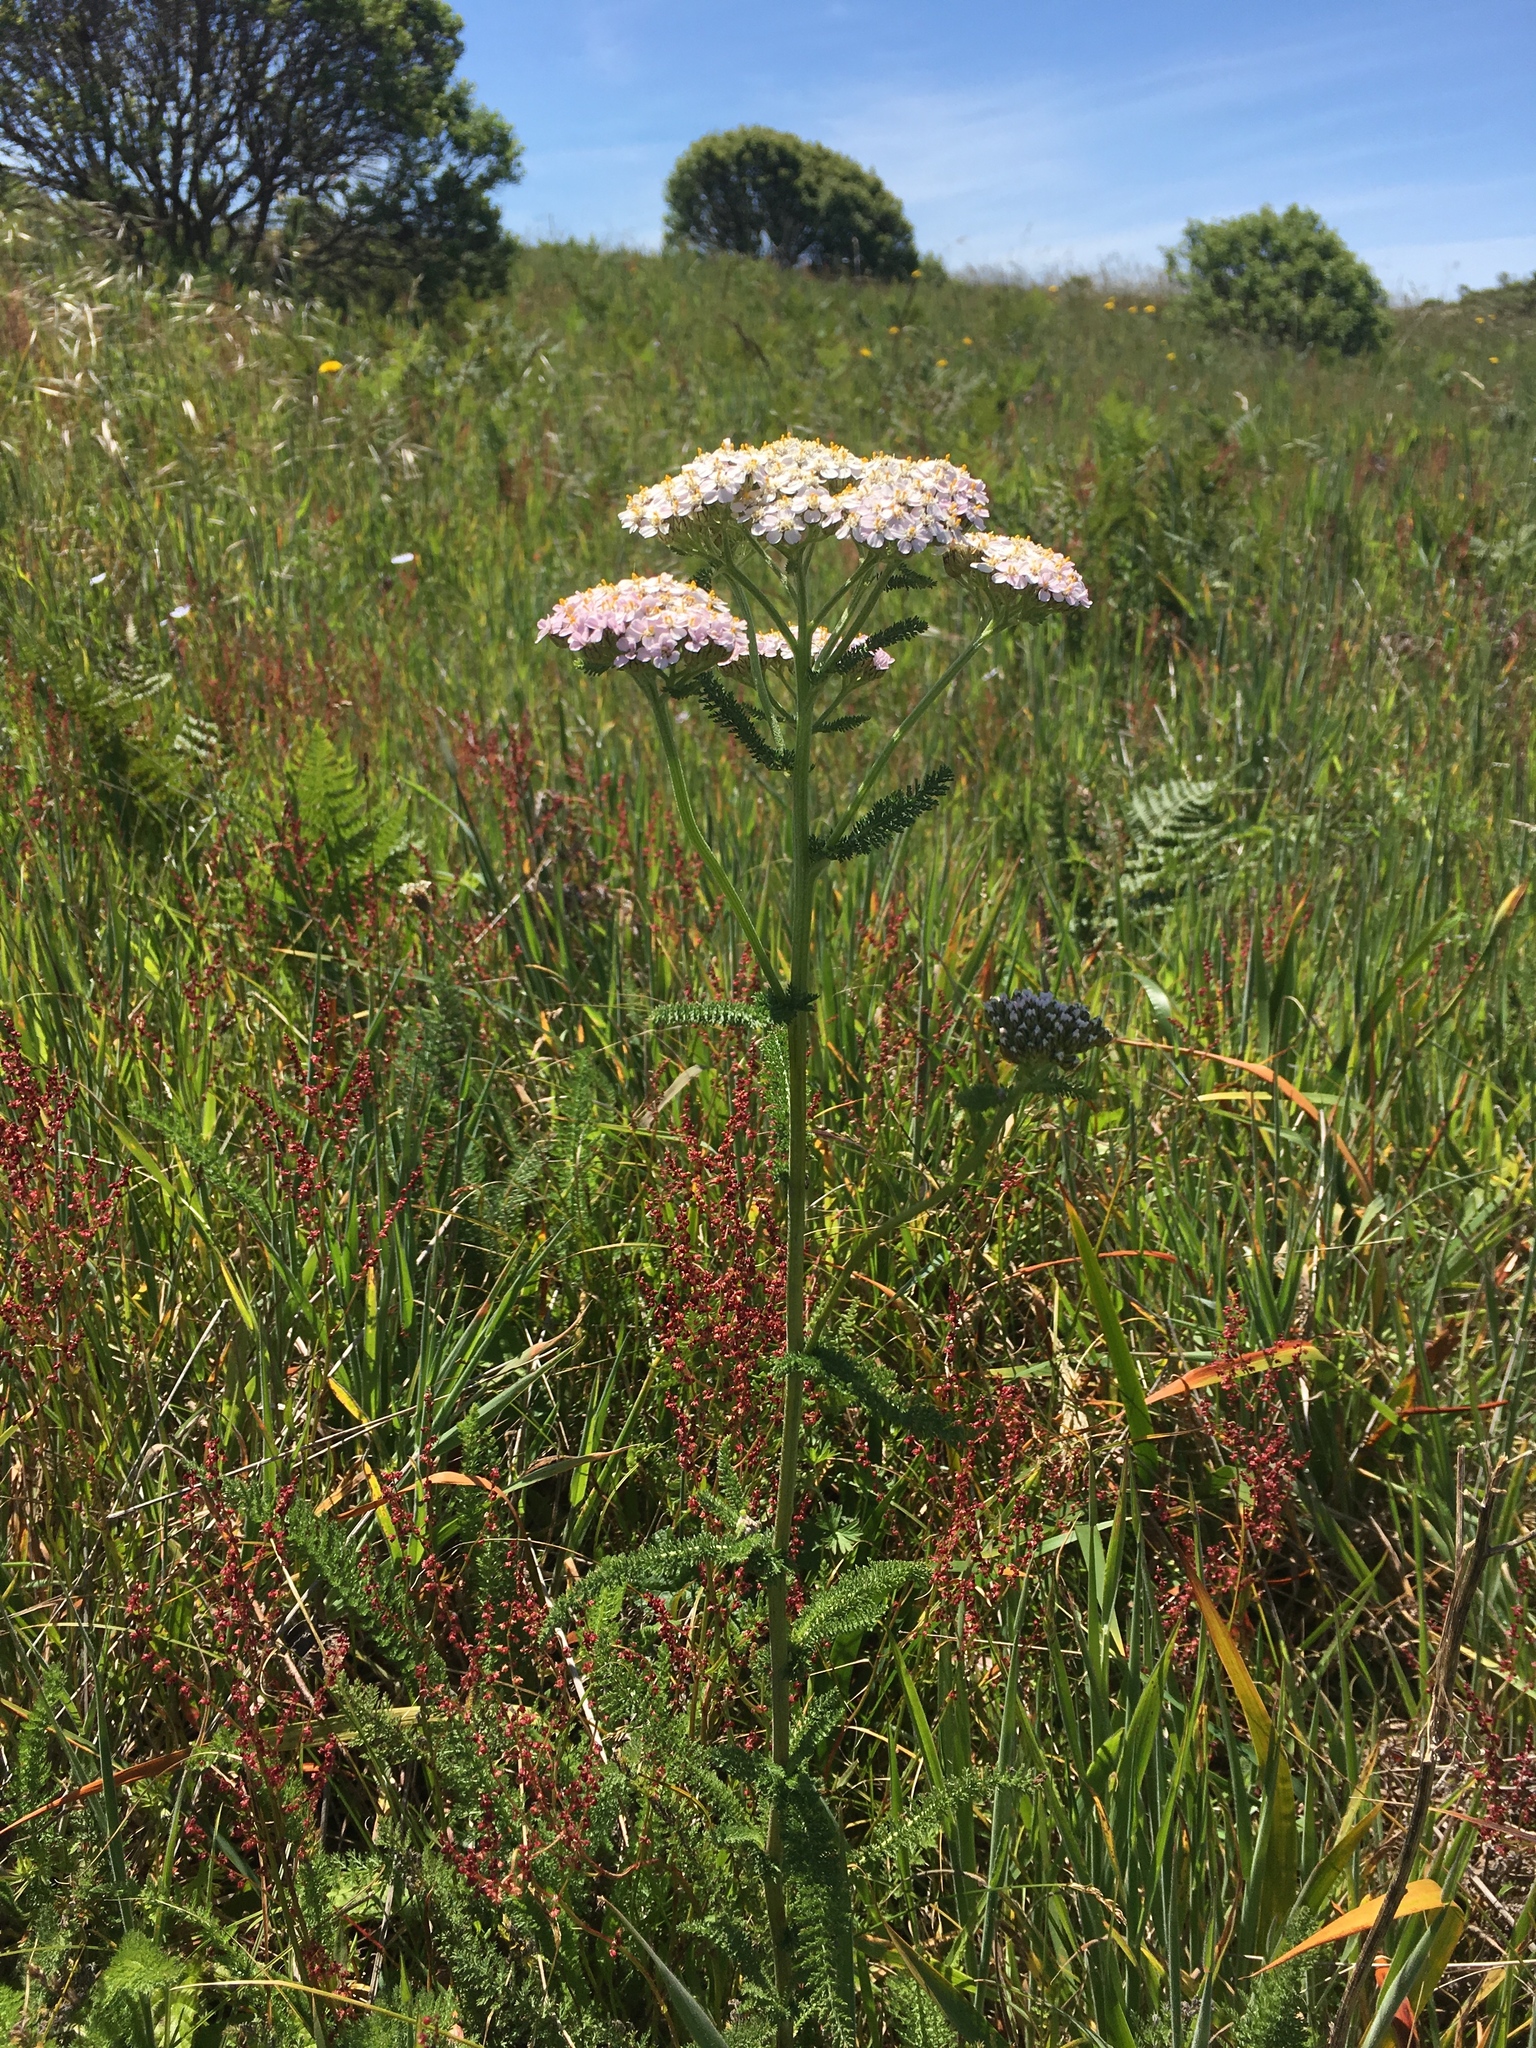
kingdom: Plantae
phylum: Tracheophyta
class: Magnoliopsida
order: Asterales
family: Asteraceae
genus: Achillea
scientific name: Achillea millefolium
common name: Yarrow
